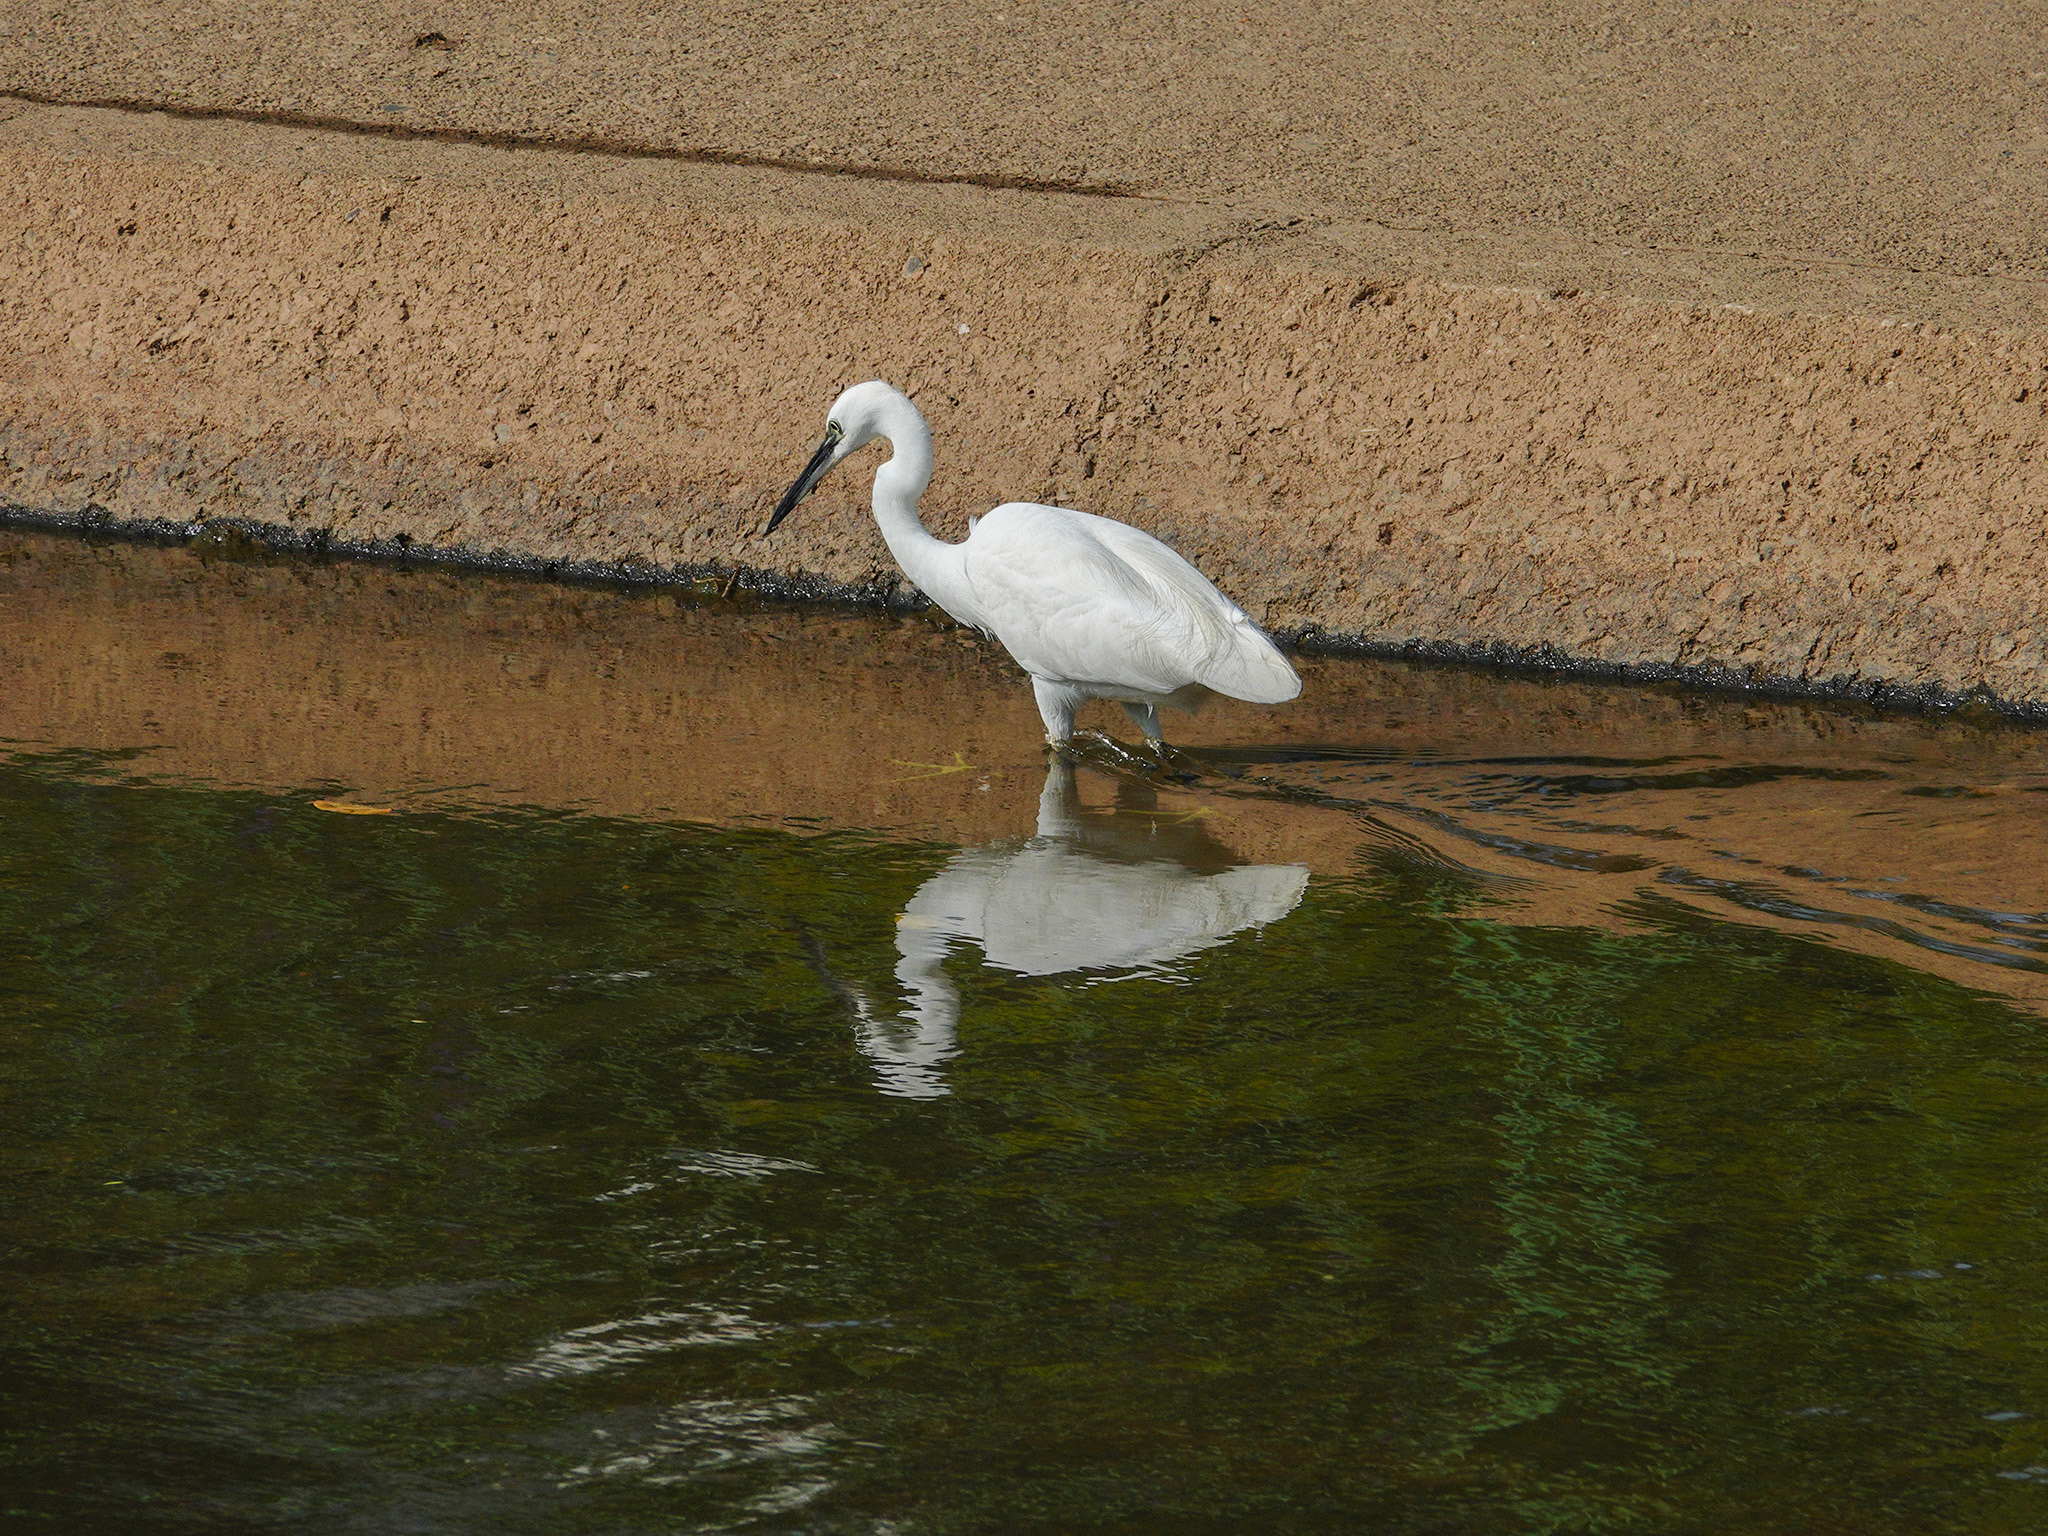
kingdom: Animalia
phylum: Chordata
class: Aves
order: Pelecaniformes
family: Ardeidae
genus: Egretta
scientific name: Egretta garzetta
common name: Little egret
